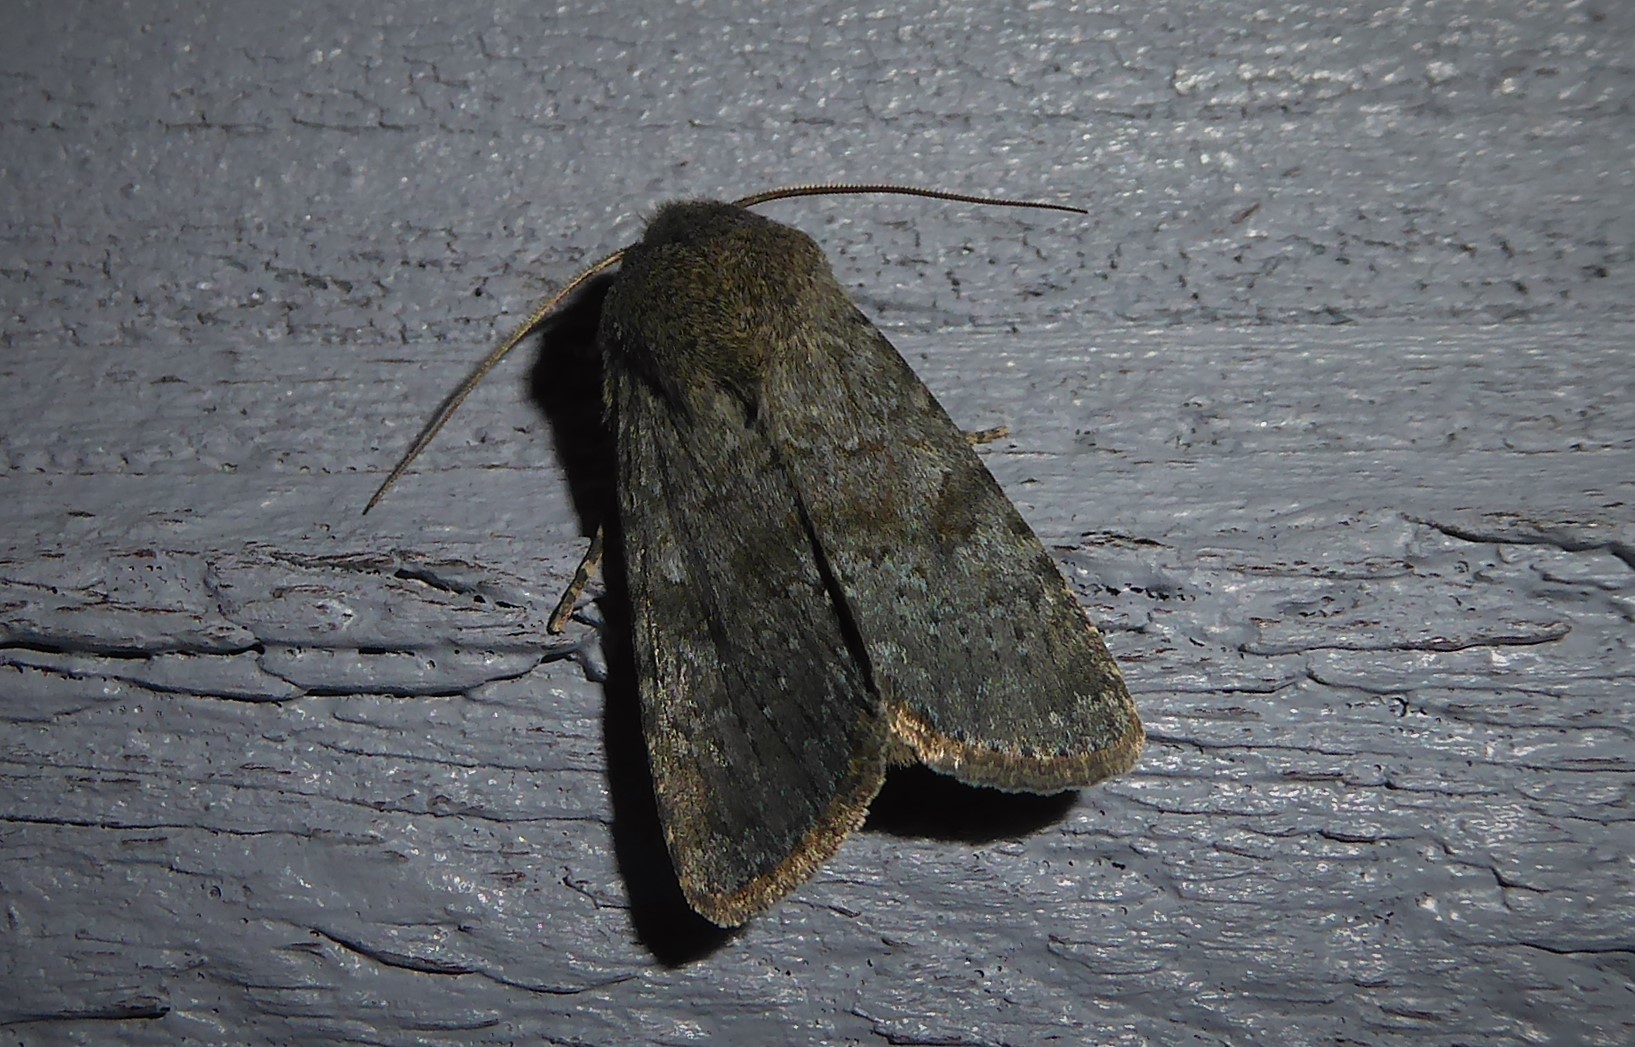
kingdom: Animalia
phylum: Arthropoda
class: Insecta
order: Lepidoptera
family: Noctuidae
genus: Ichneutica
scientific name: Ichneutica moderata
